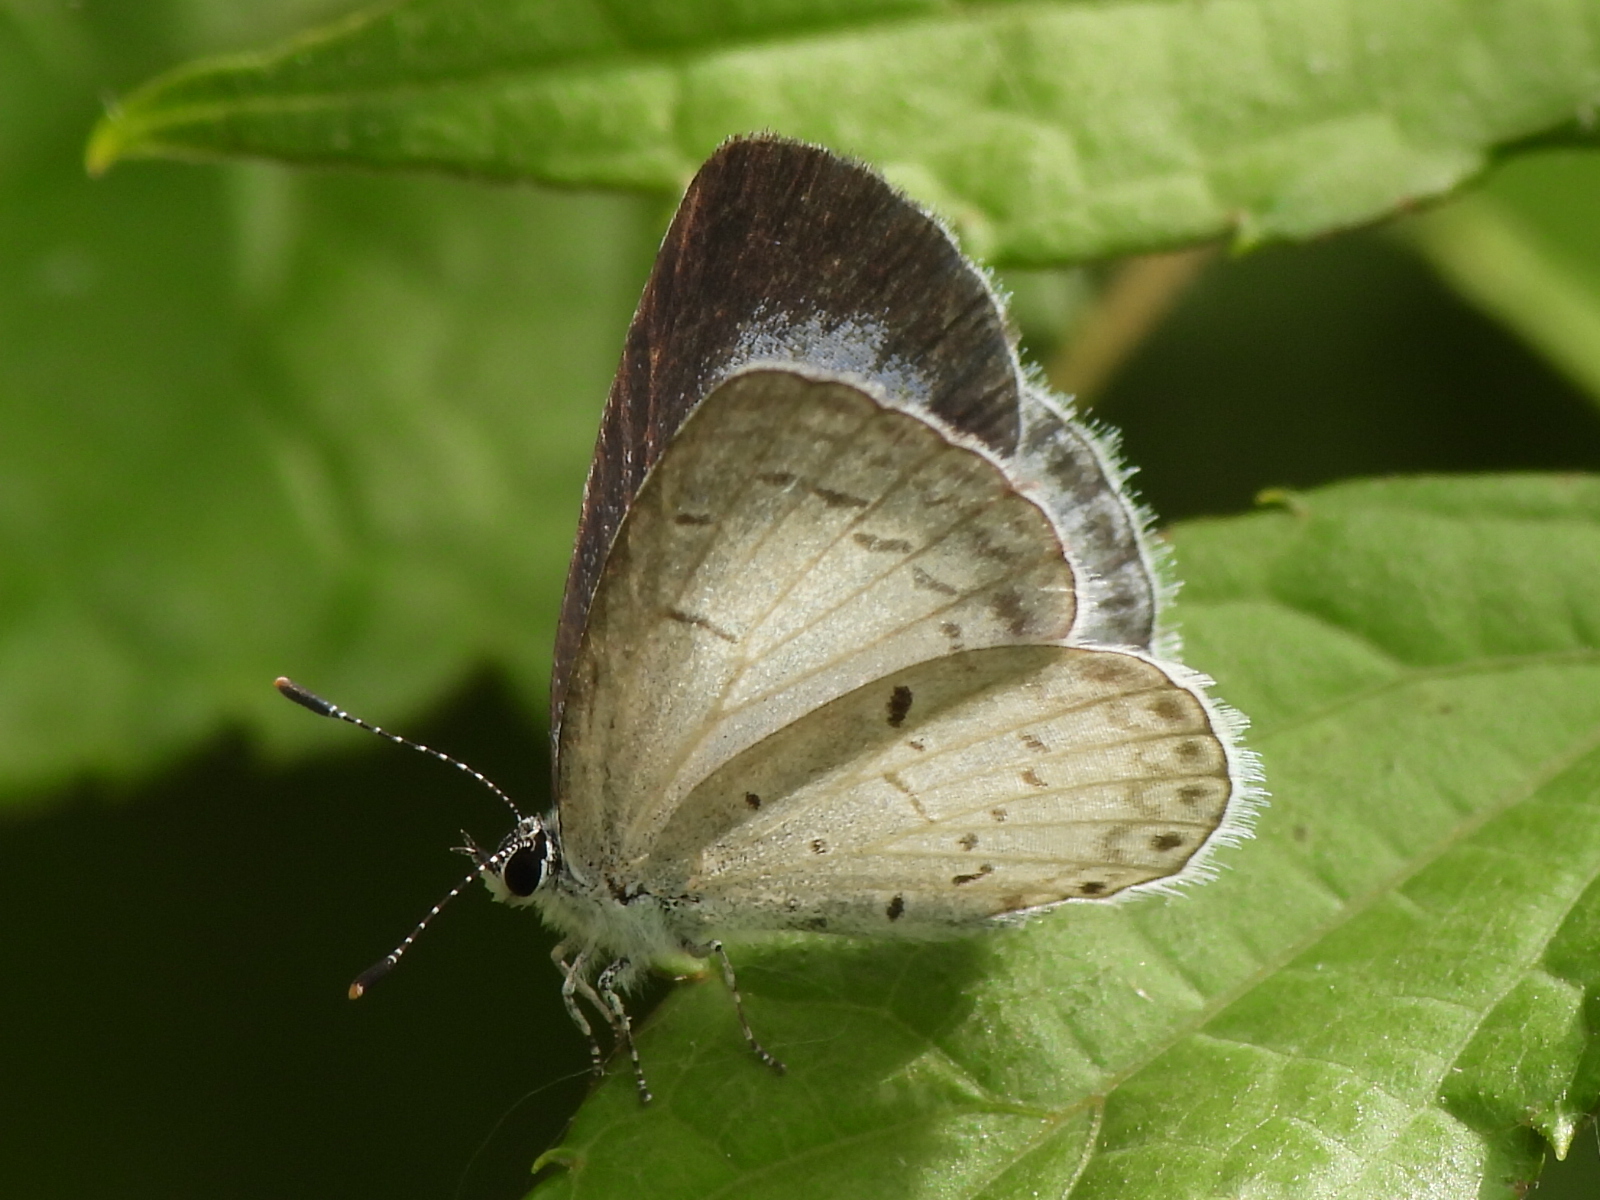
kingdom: Animalia
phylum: Arthropoda
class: Insecta
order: Lepidoptera
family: Lycaenidae
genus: Cyaniris
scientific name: Cyaniris neglecta
